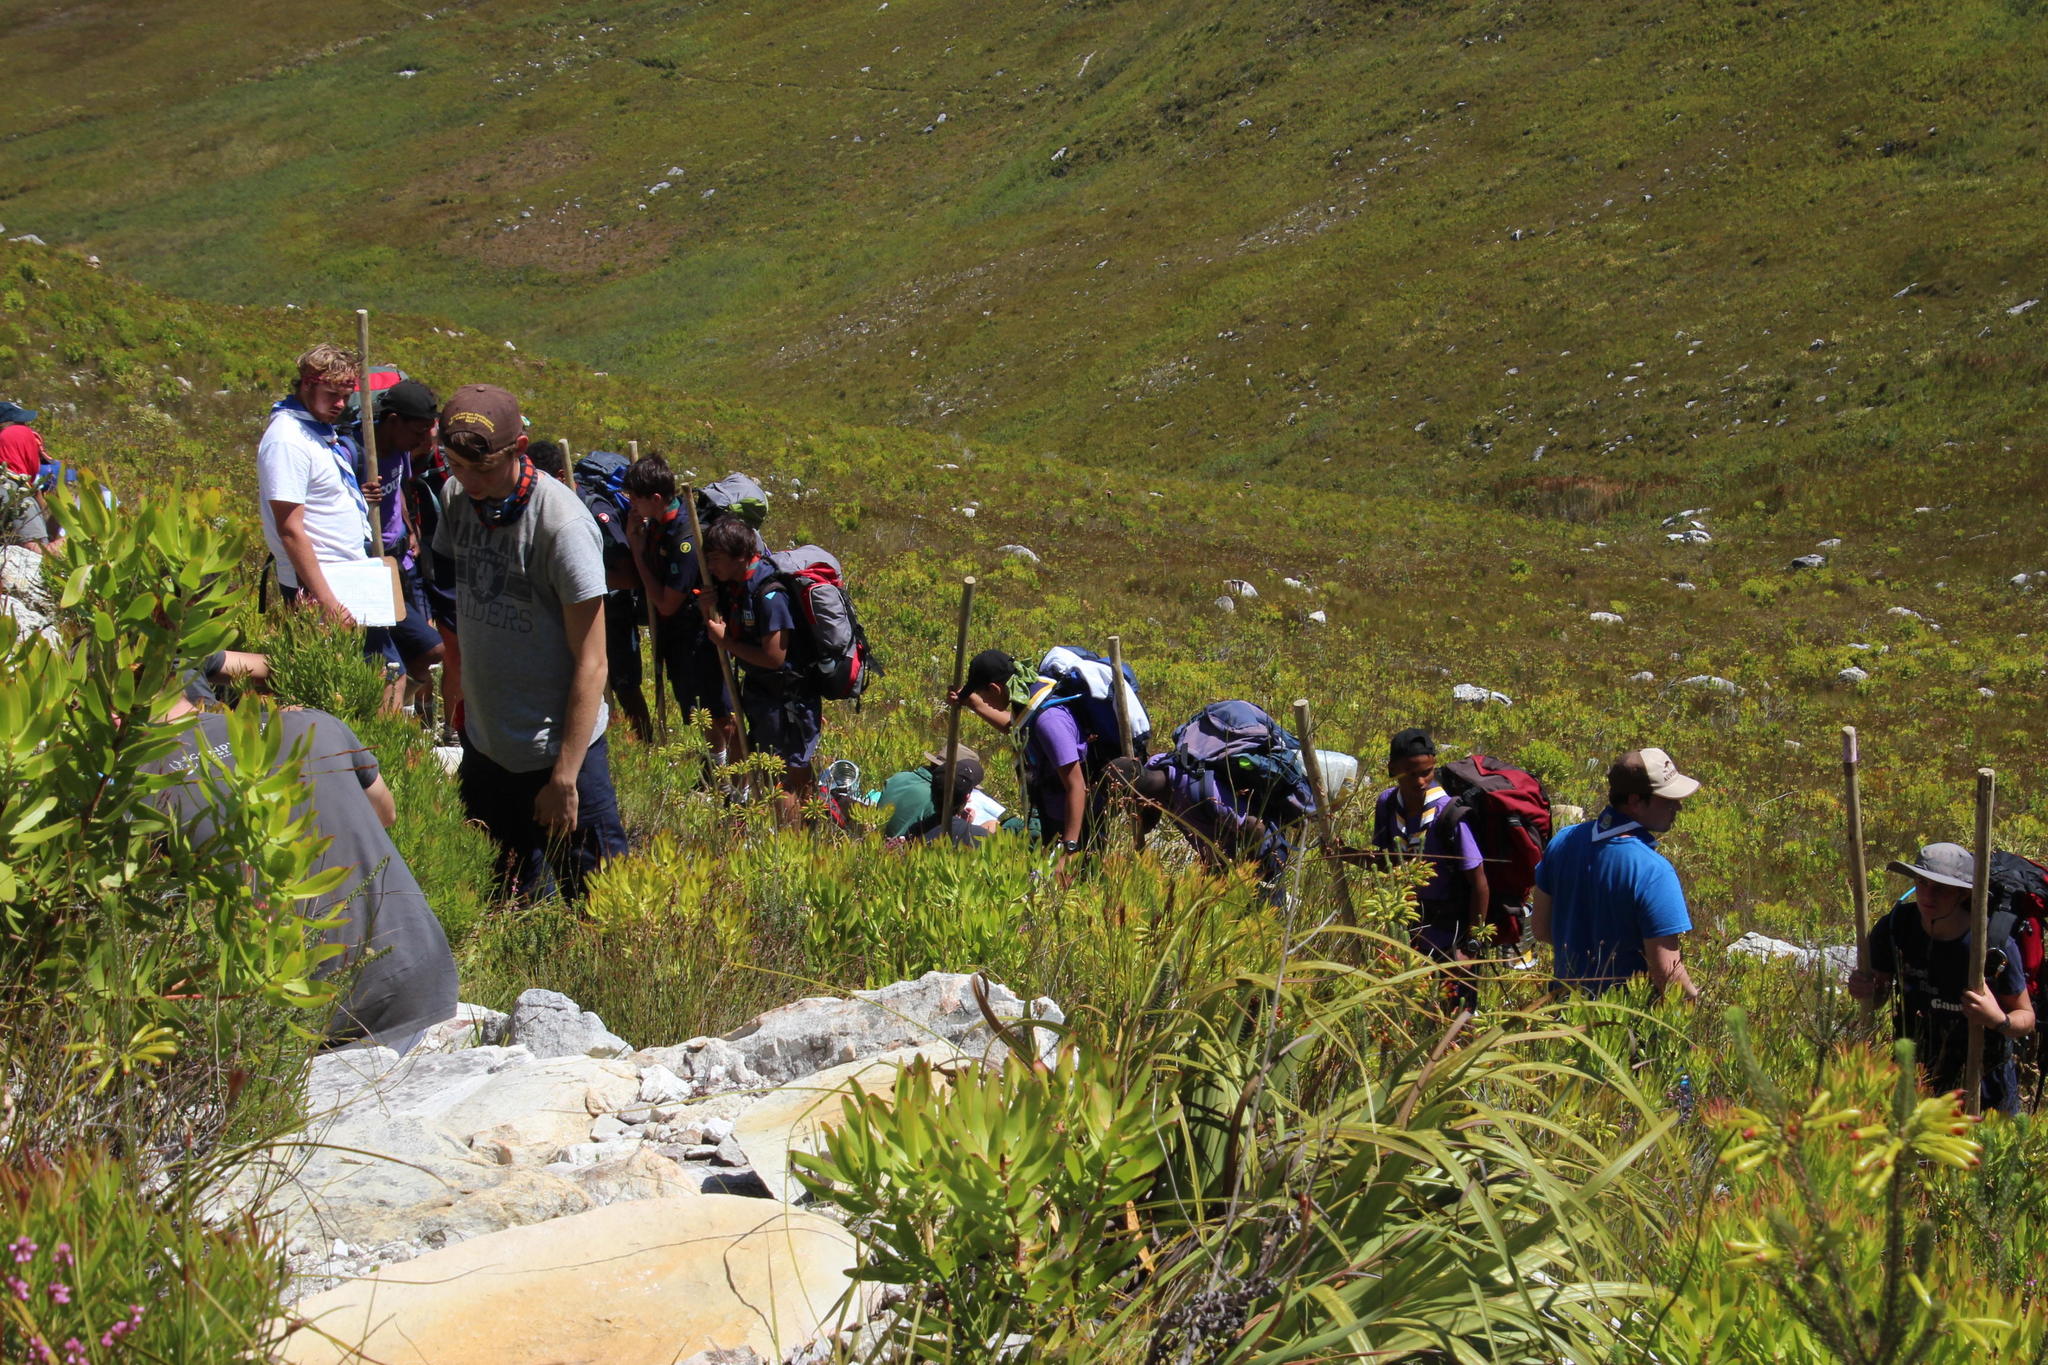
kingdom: Plantae
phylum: Tracheophyta
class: Magnoliopsida
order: Ericales
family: Ericaceae
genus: Erica
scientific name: Erica thomae
